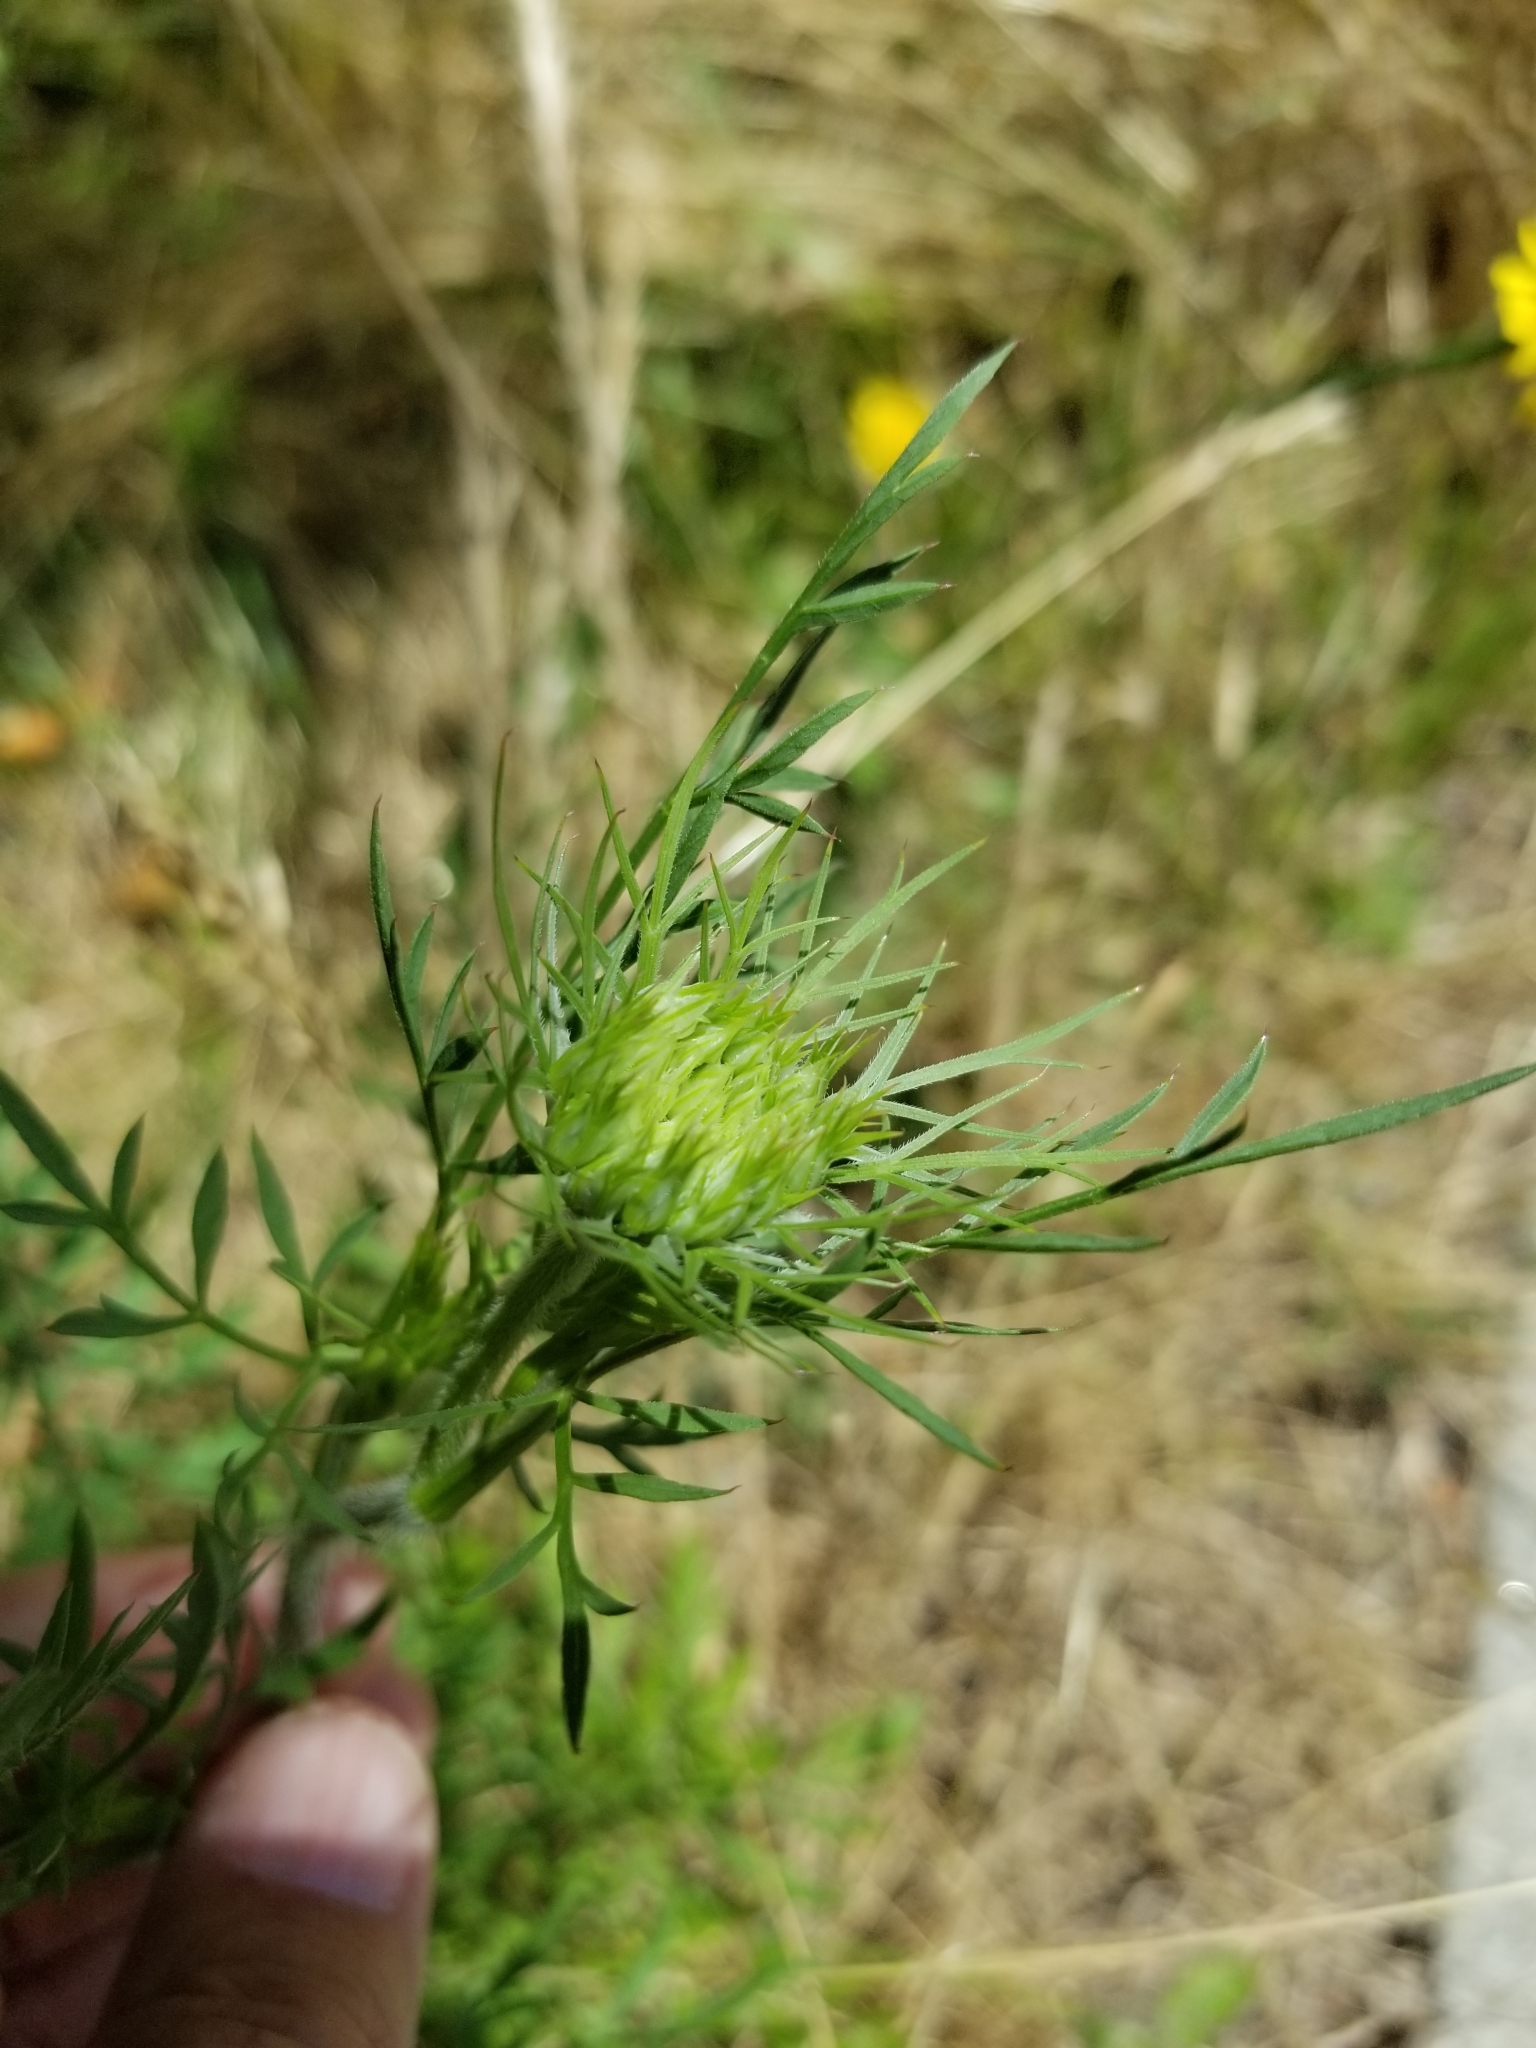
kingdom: Plantae
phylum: Tracheophyta
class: Magnoliopsida
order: Apiales
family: Apiaceae
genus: Daucus
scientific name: Daucus carota
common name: Wild carrot
